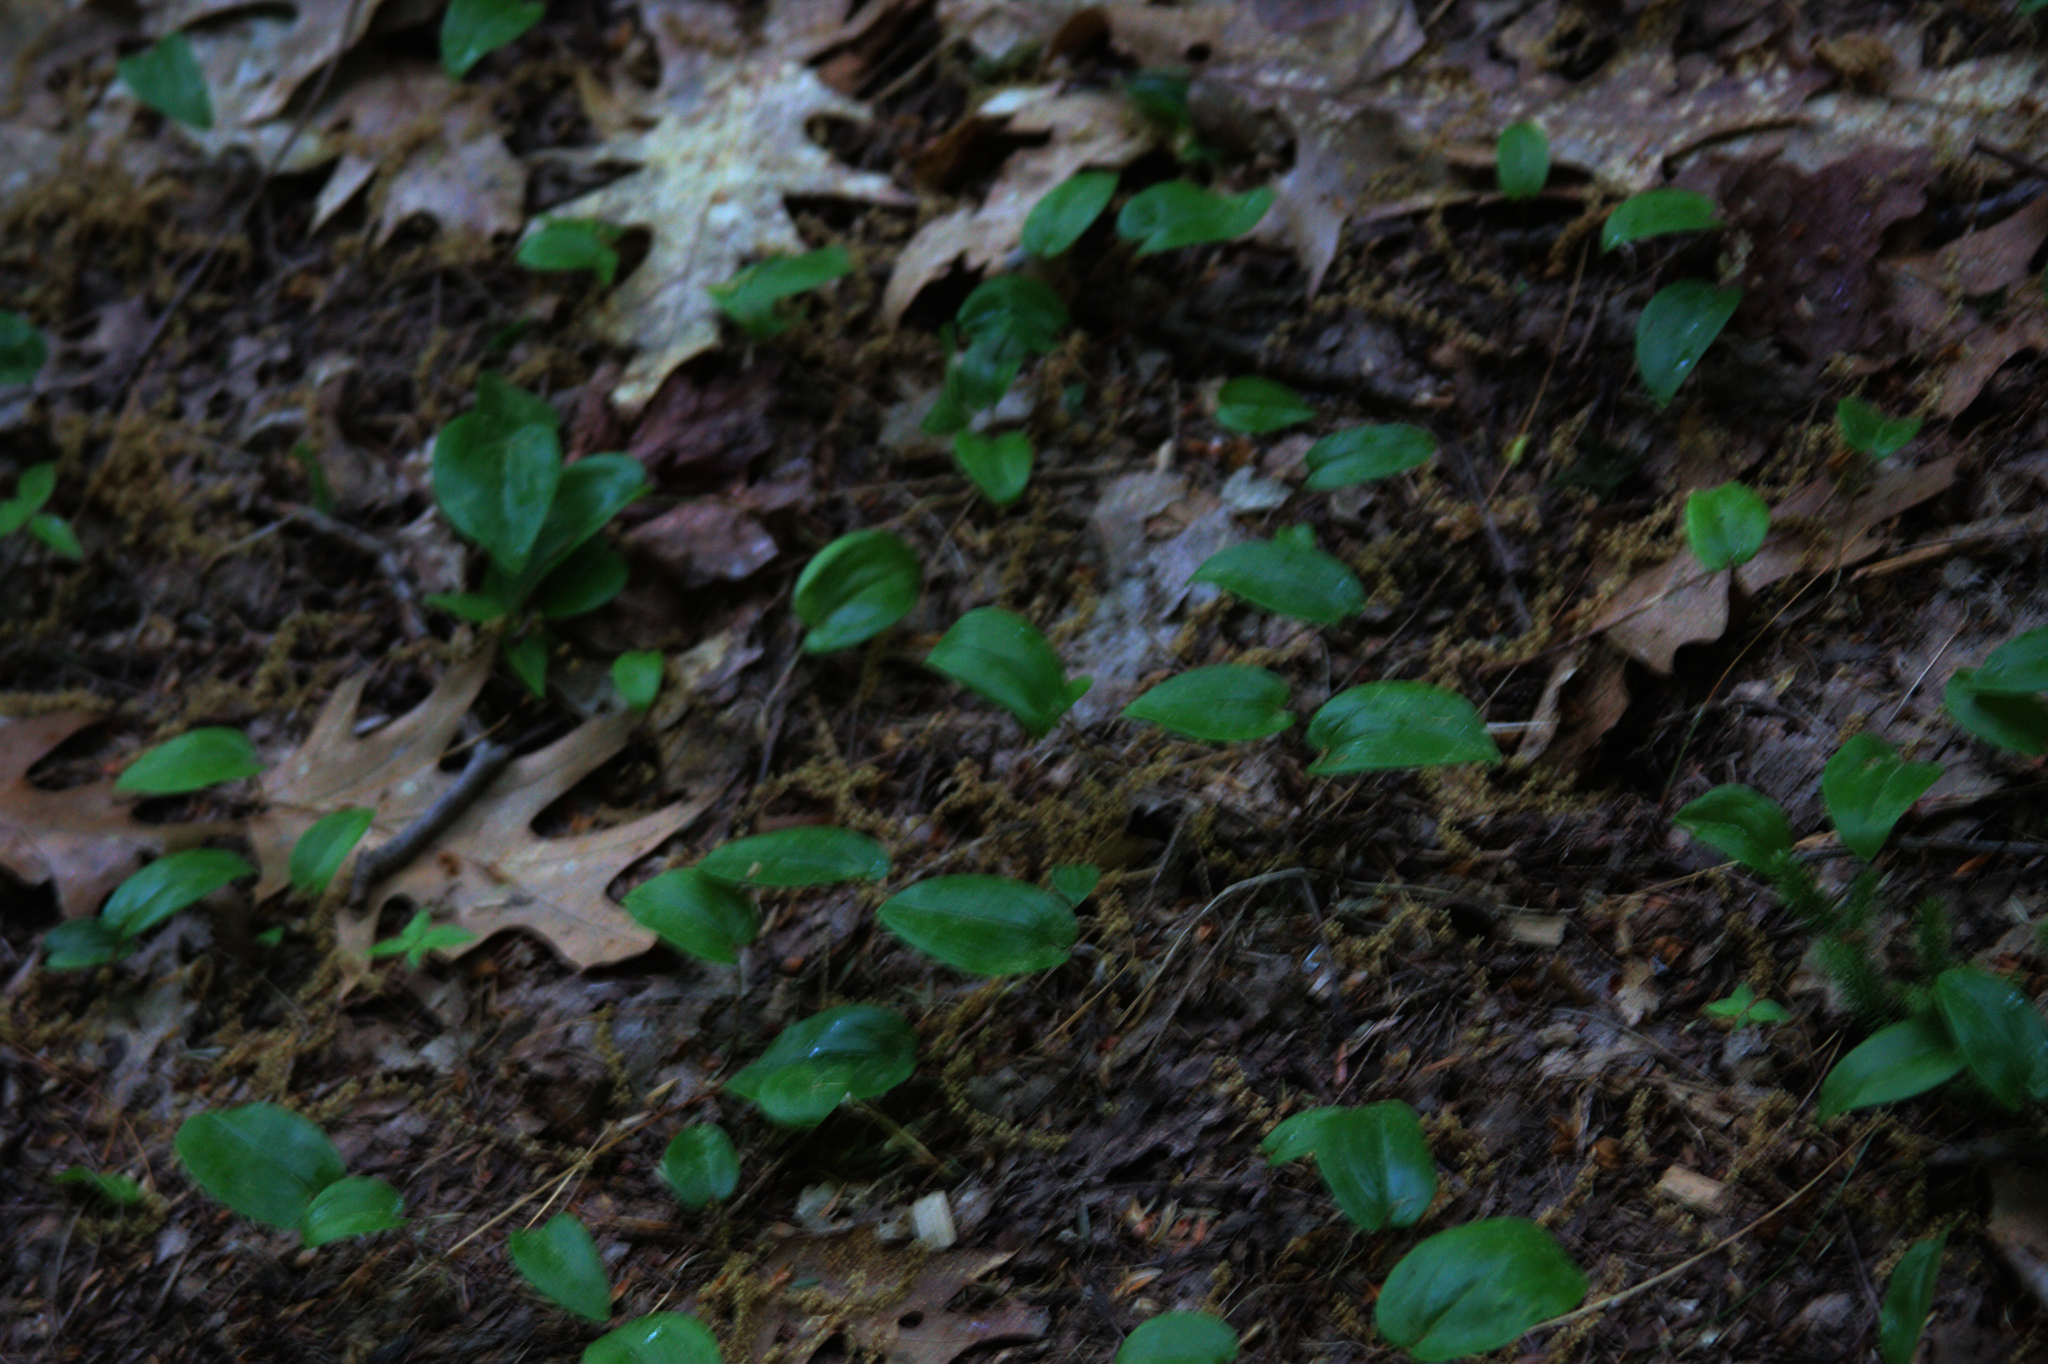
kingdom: Plantae
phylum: Tracheophyta
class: Liliopsida
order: Asparagales
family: Asparagaceae
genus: Maianthemum
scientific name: Maianthemum canadense
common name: False lily-of-the-valley
